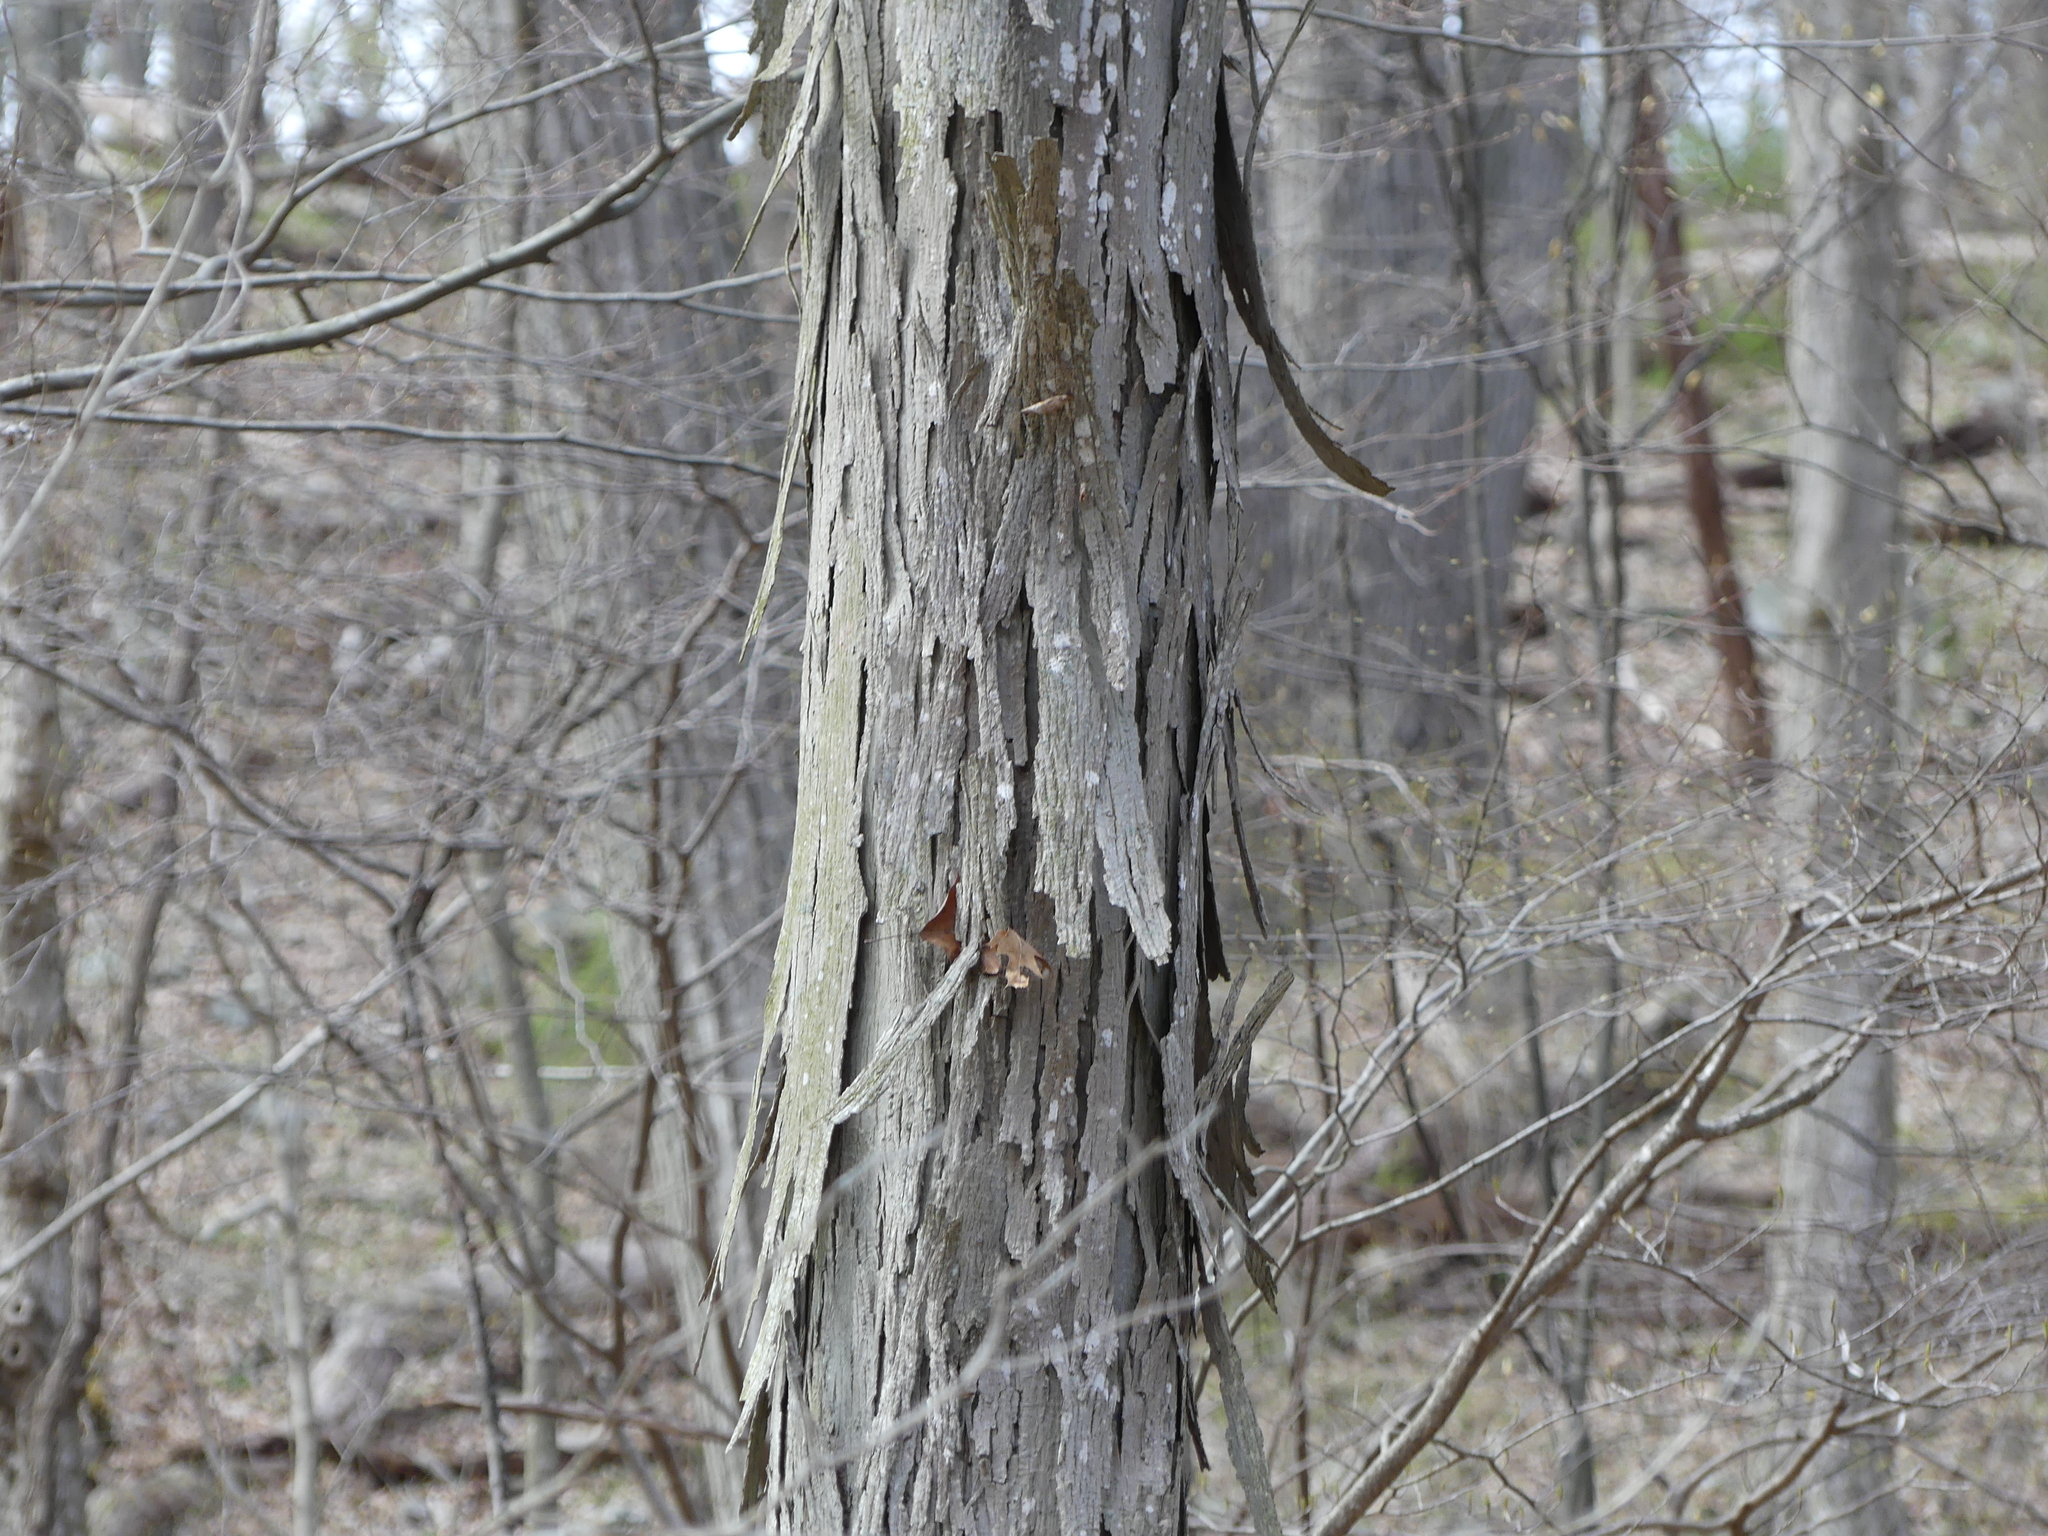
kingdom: Plantae
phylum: Tracheophyta
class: Magnoliopsida
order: Fagales
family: Juglandaceae
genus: Carya
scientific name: Carya ovata
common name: Shagbark hickory
